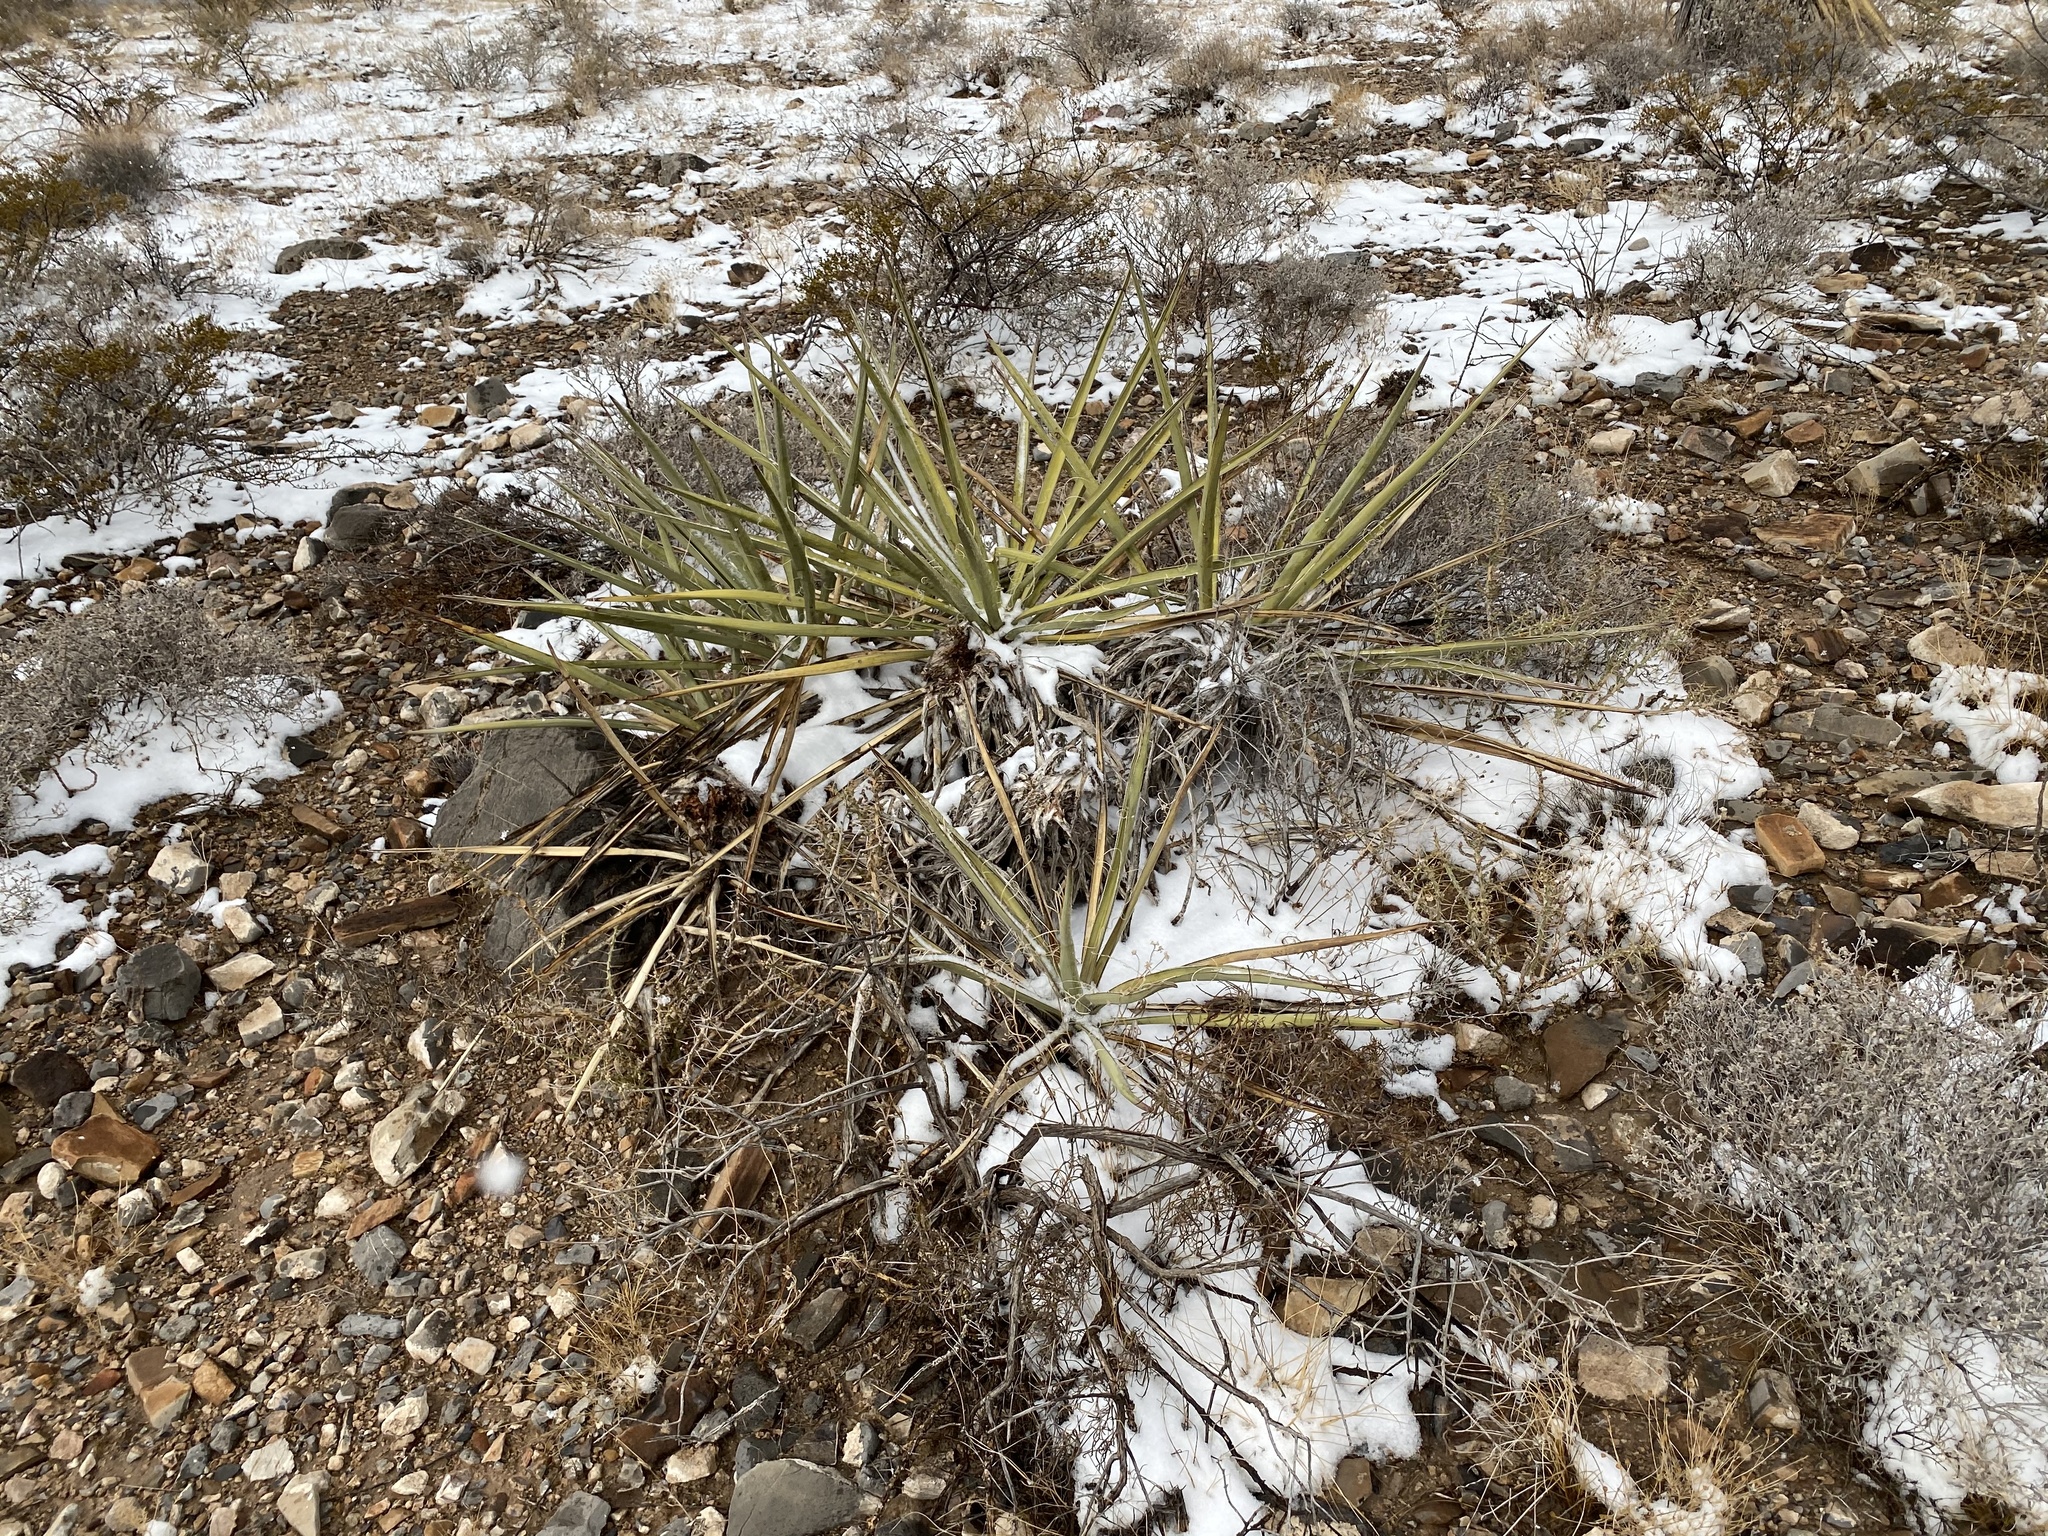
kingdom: Plantae
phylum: Tracheophyta
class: Liliopsida
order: Asparagales
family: Asparagaceae
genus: Yucca
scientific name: Yucca baccata
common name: Banana yucca
